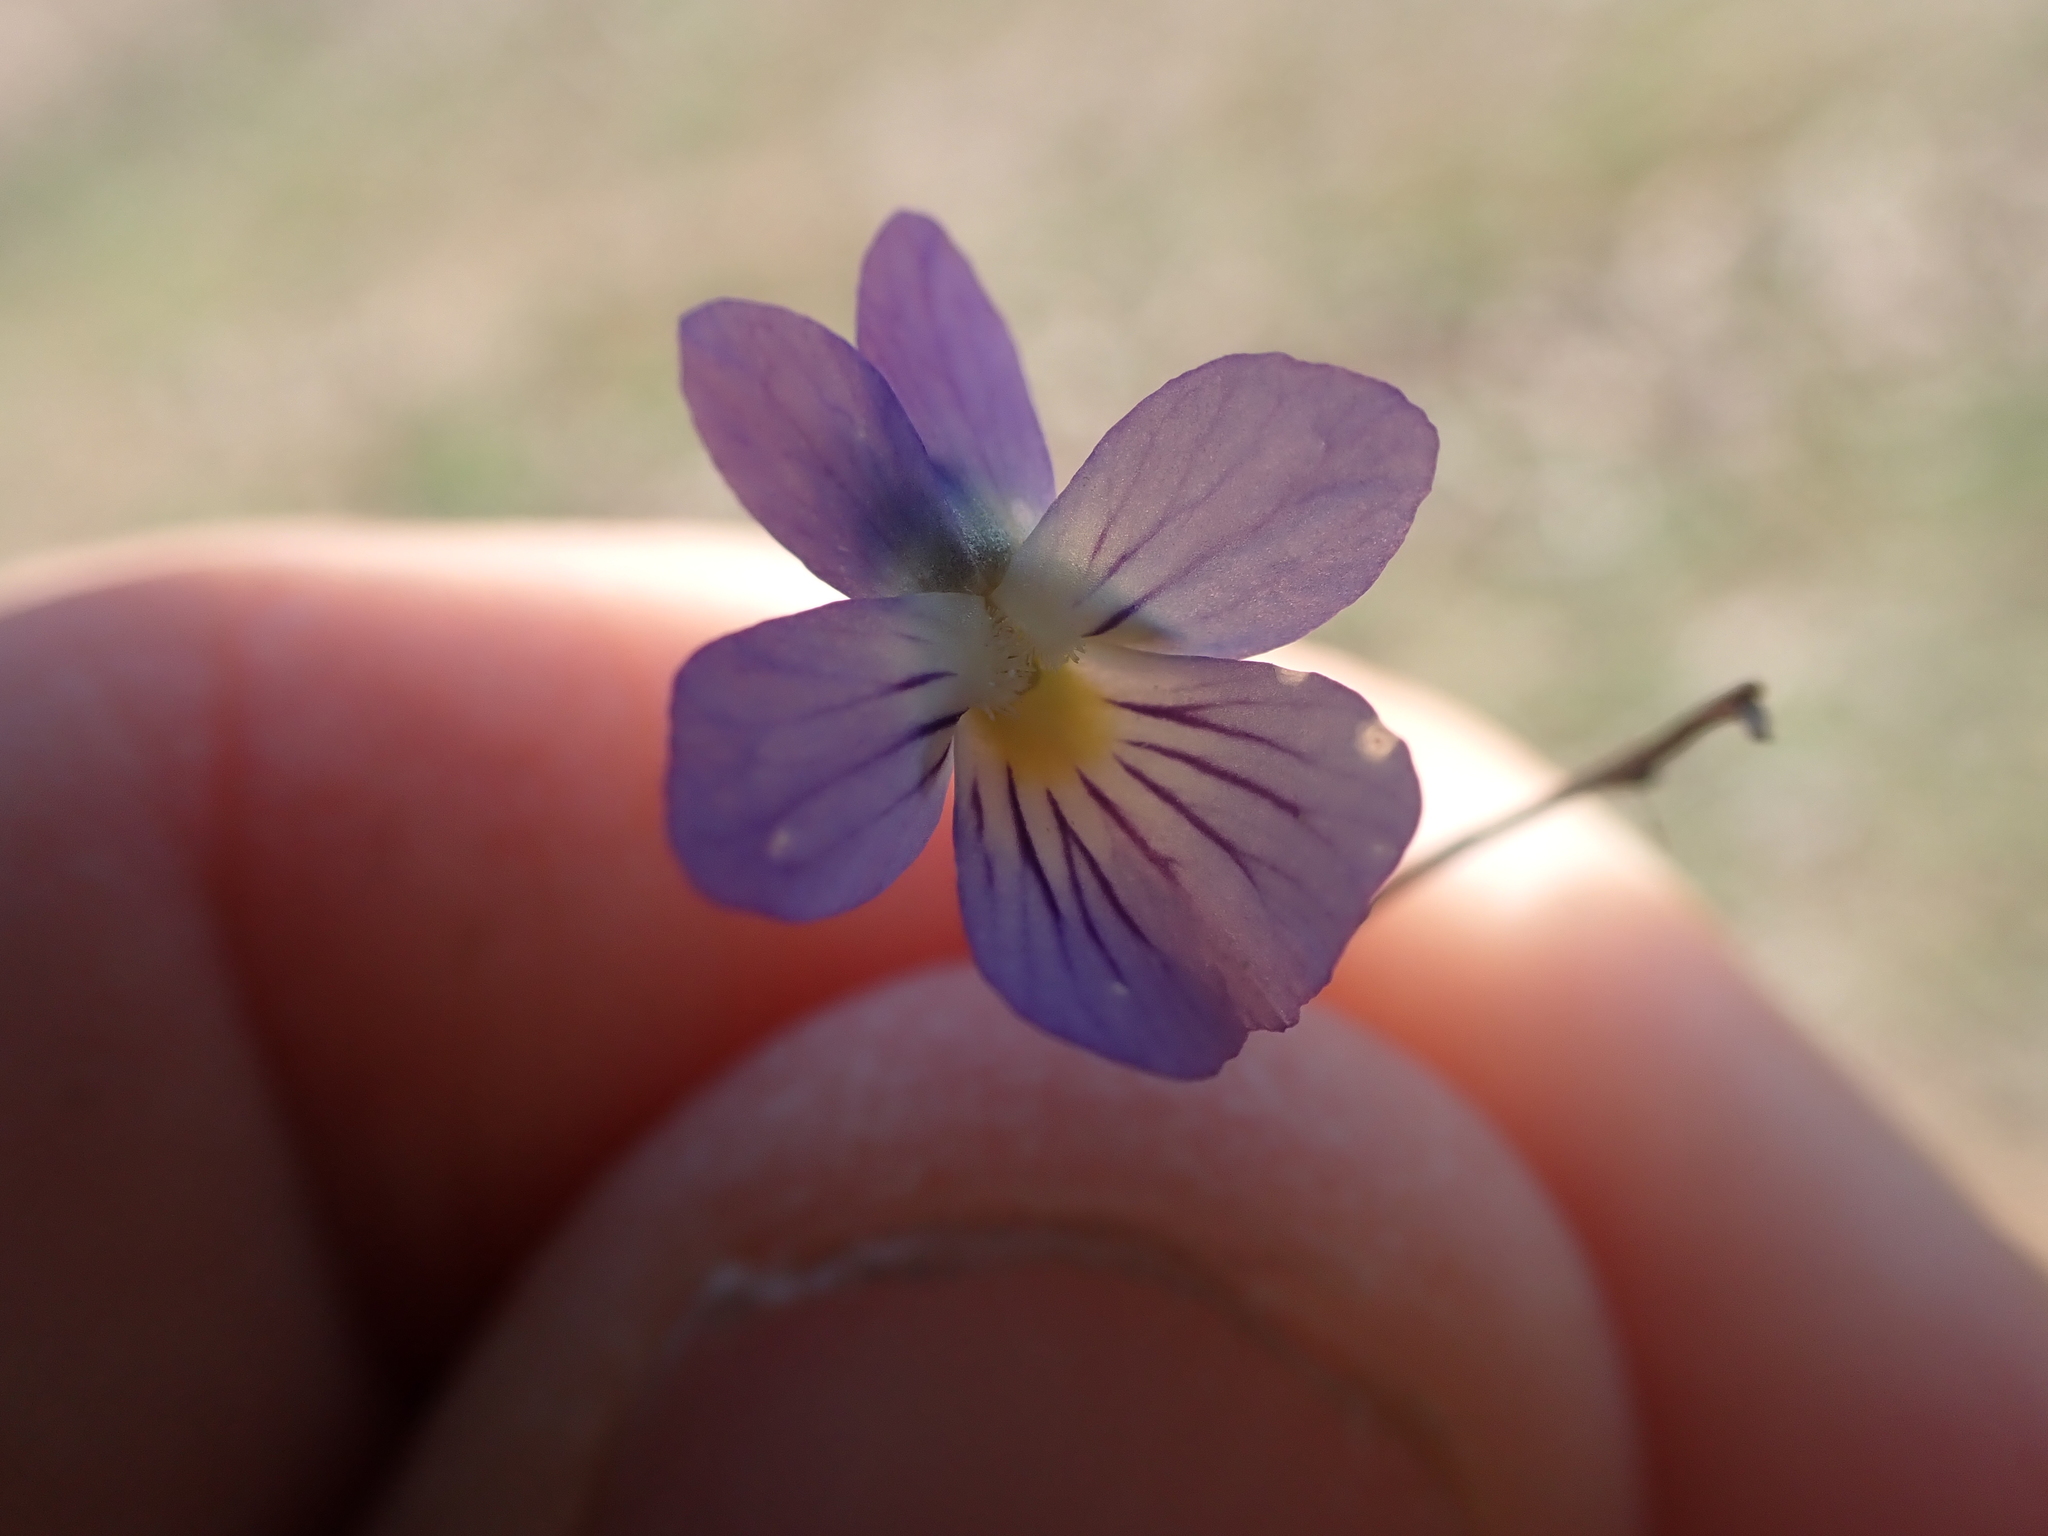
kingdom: Plantae
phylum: Tracheophyta
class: Magnoliopsida
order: Malpighiales
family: Violaceae
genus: Viola
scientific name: Viola rafinesquei
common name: American field pansy
